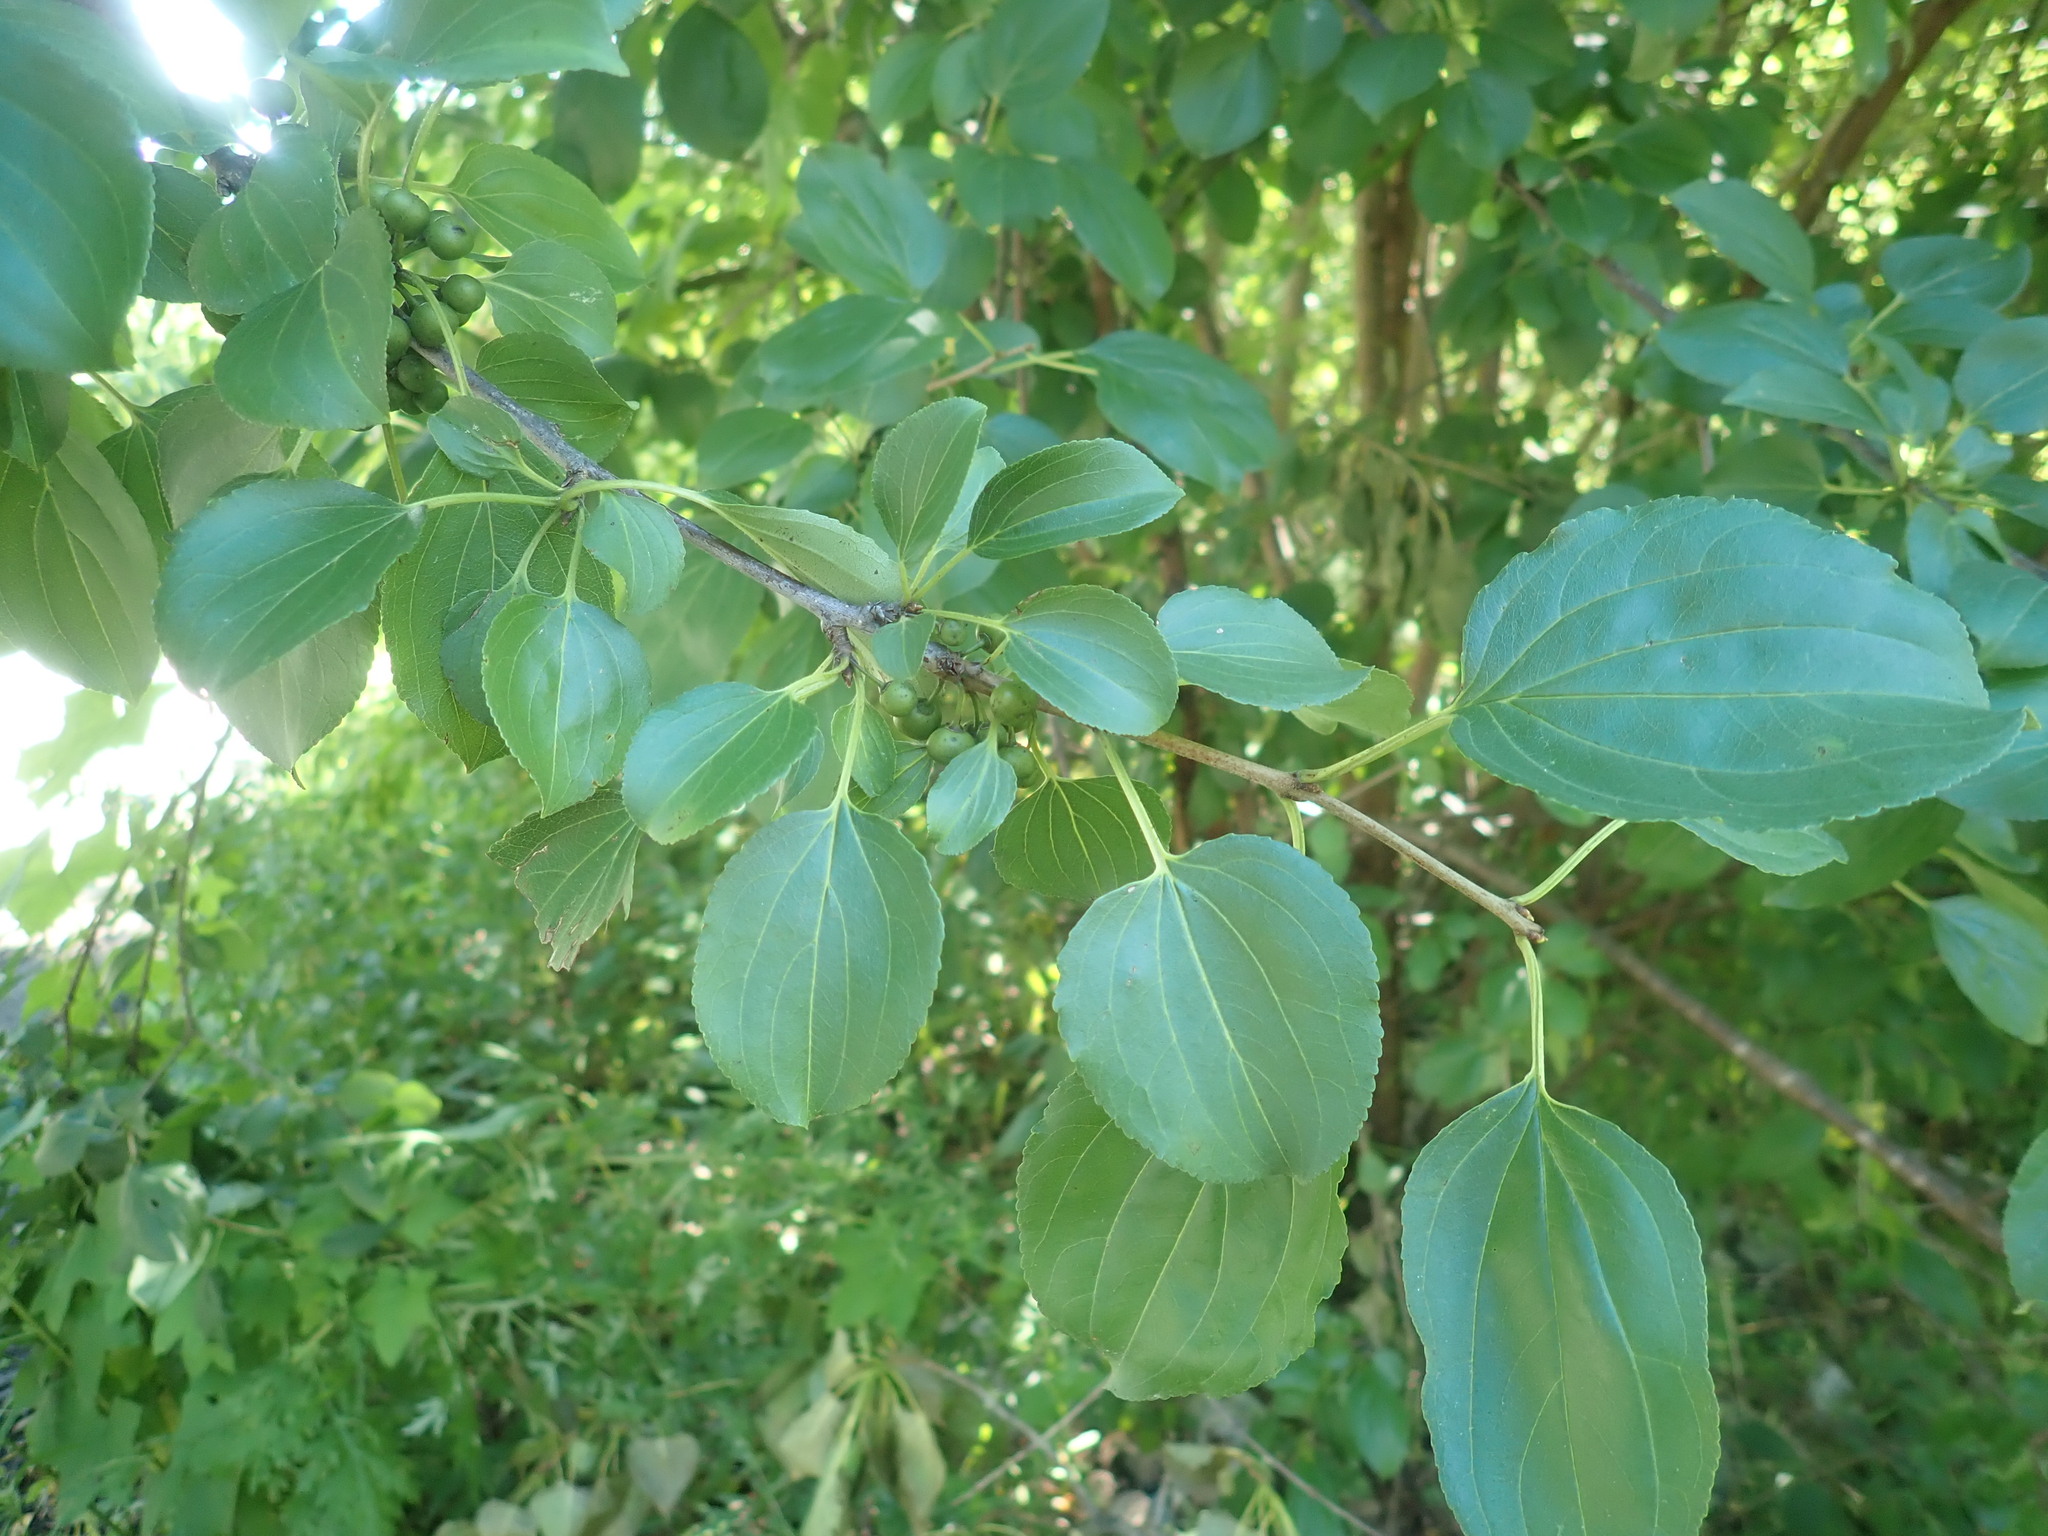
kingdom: Plantae
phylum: Tracheophyta
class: Magnoliopsida
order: Rosales
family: Rhamnaceae
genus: Rhamnus
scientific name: Rhamnus cathartica
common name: Common buckthorn
